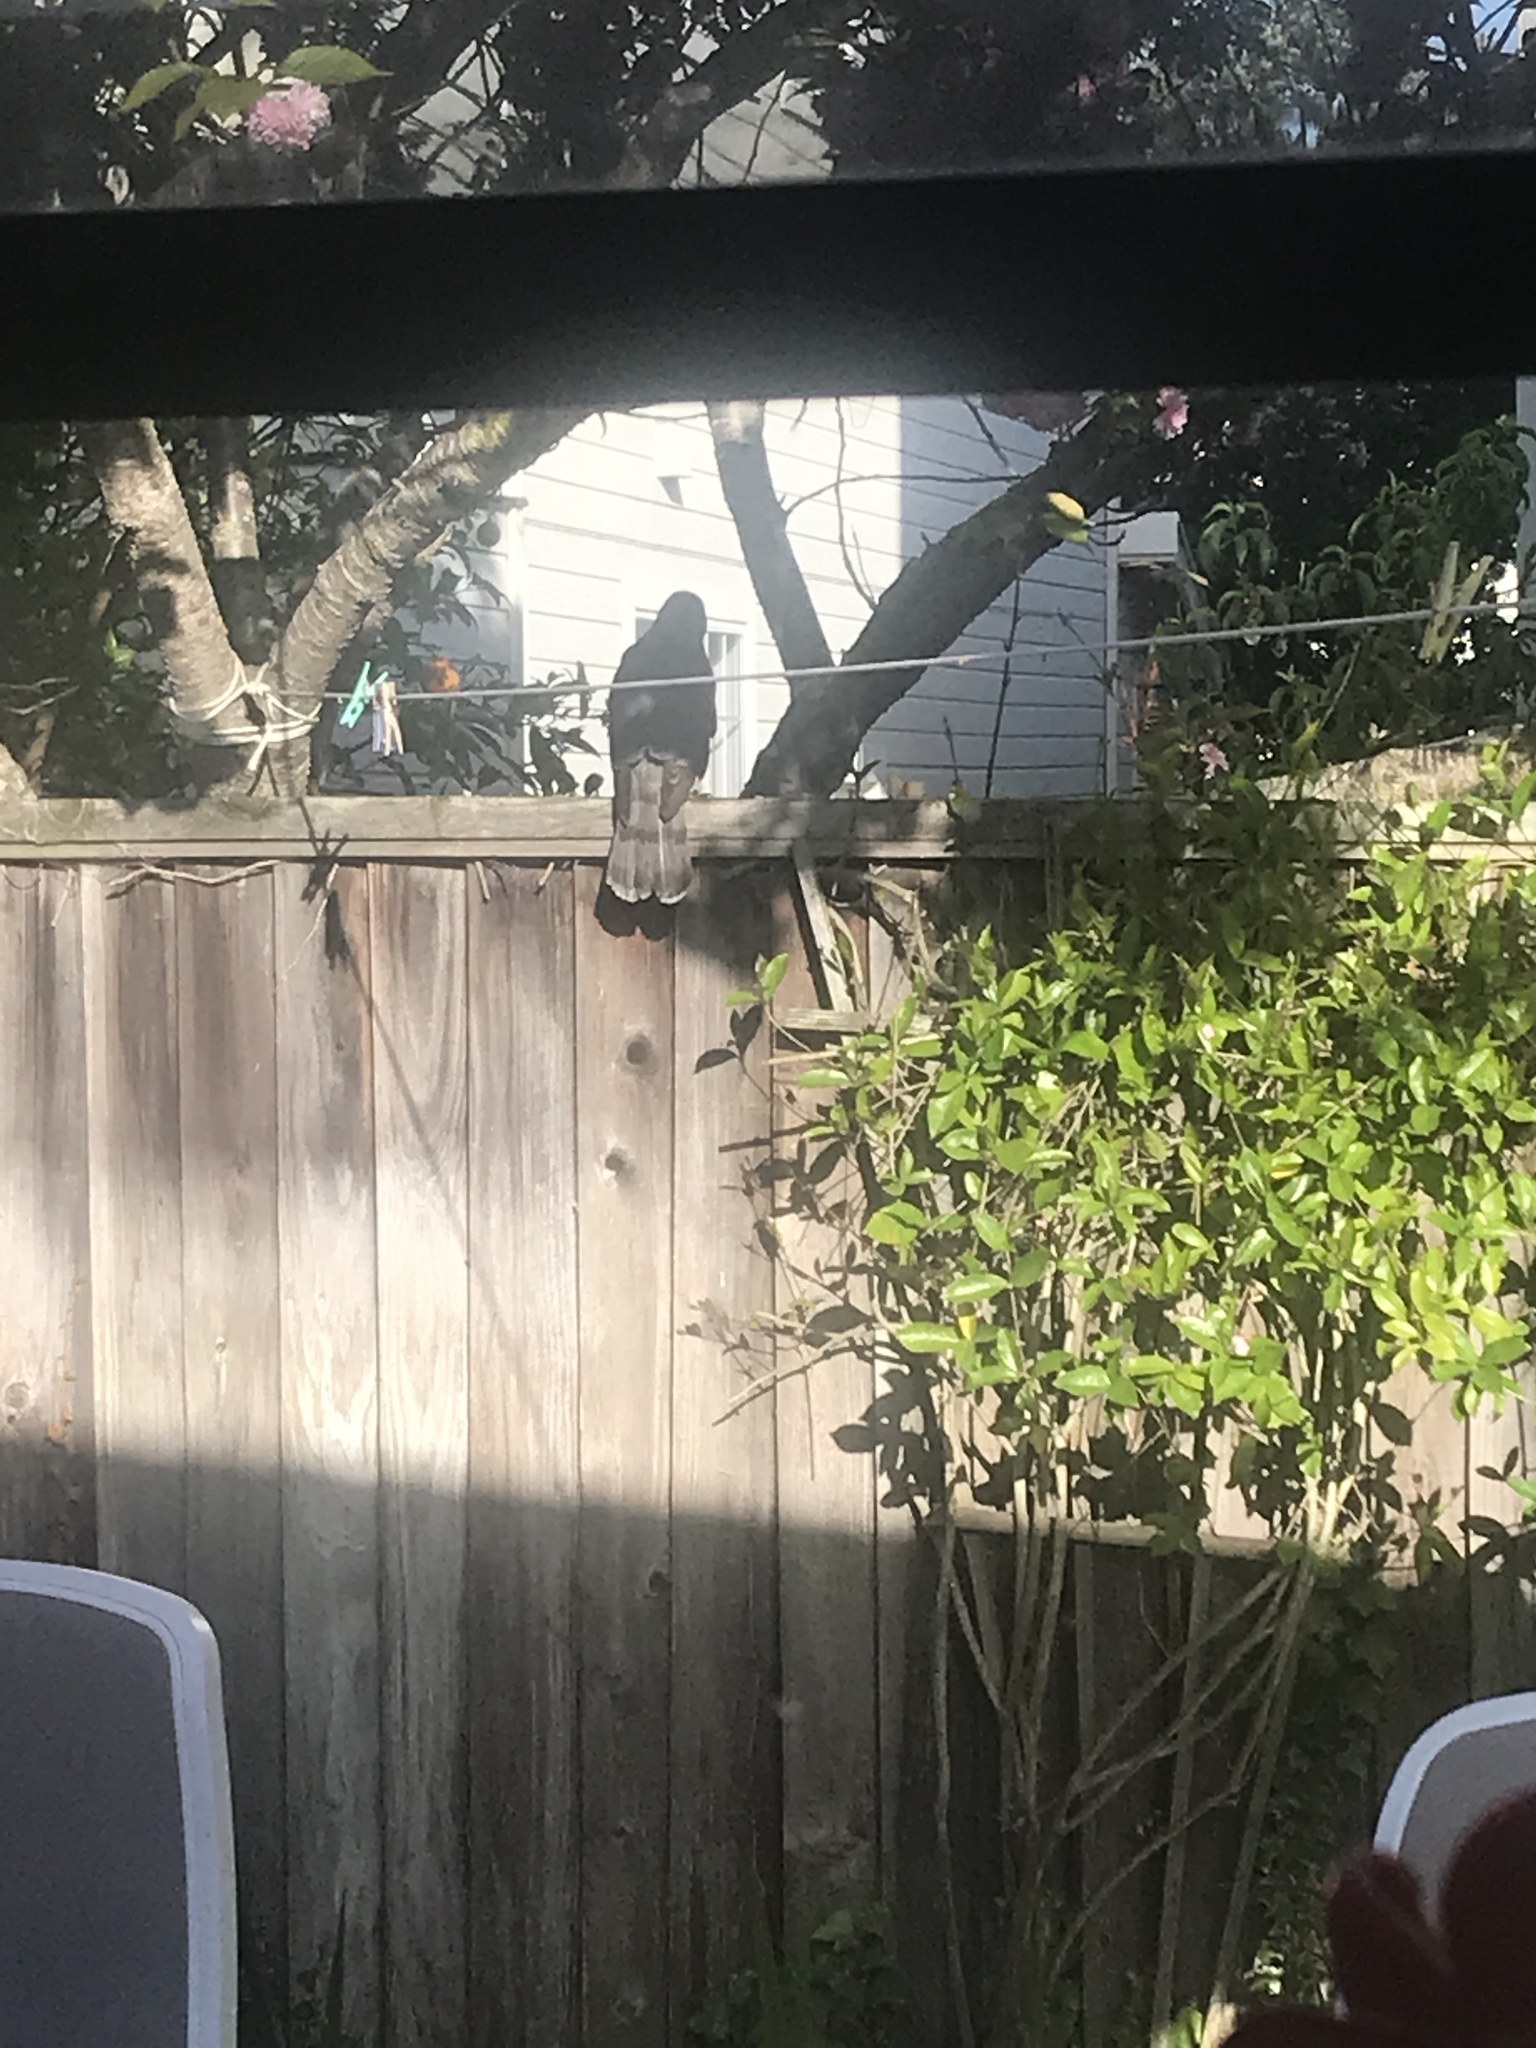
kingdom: Animalia
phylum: Chordata
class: Aves
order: Accipitriformes
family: Accipitridae
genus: Accipiter
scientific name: Accipiter cooperii
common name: Cooper's hawk
